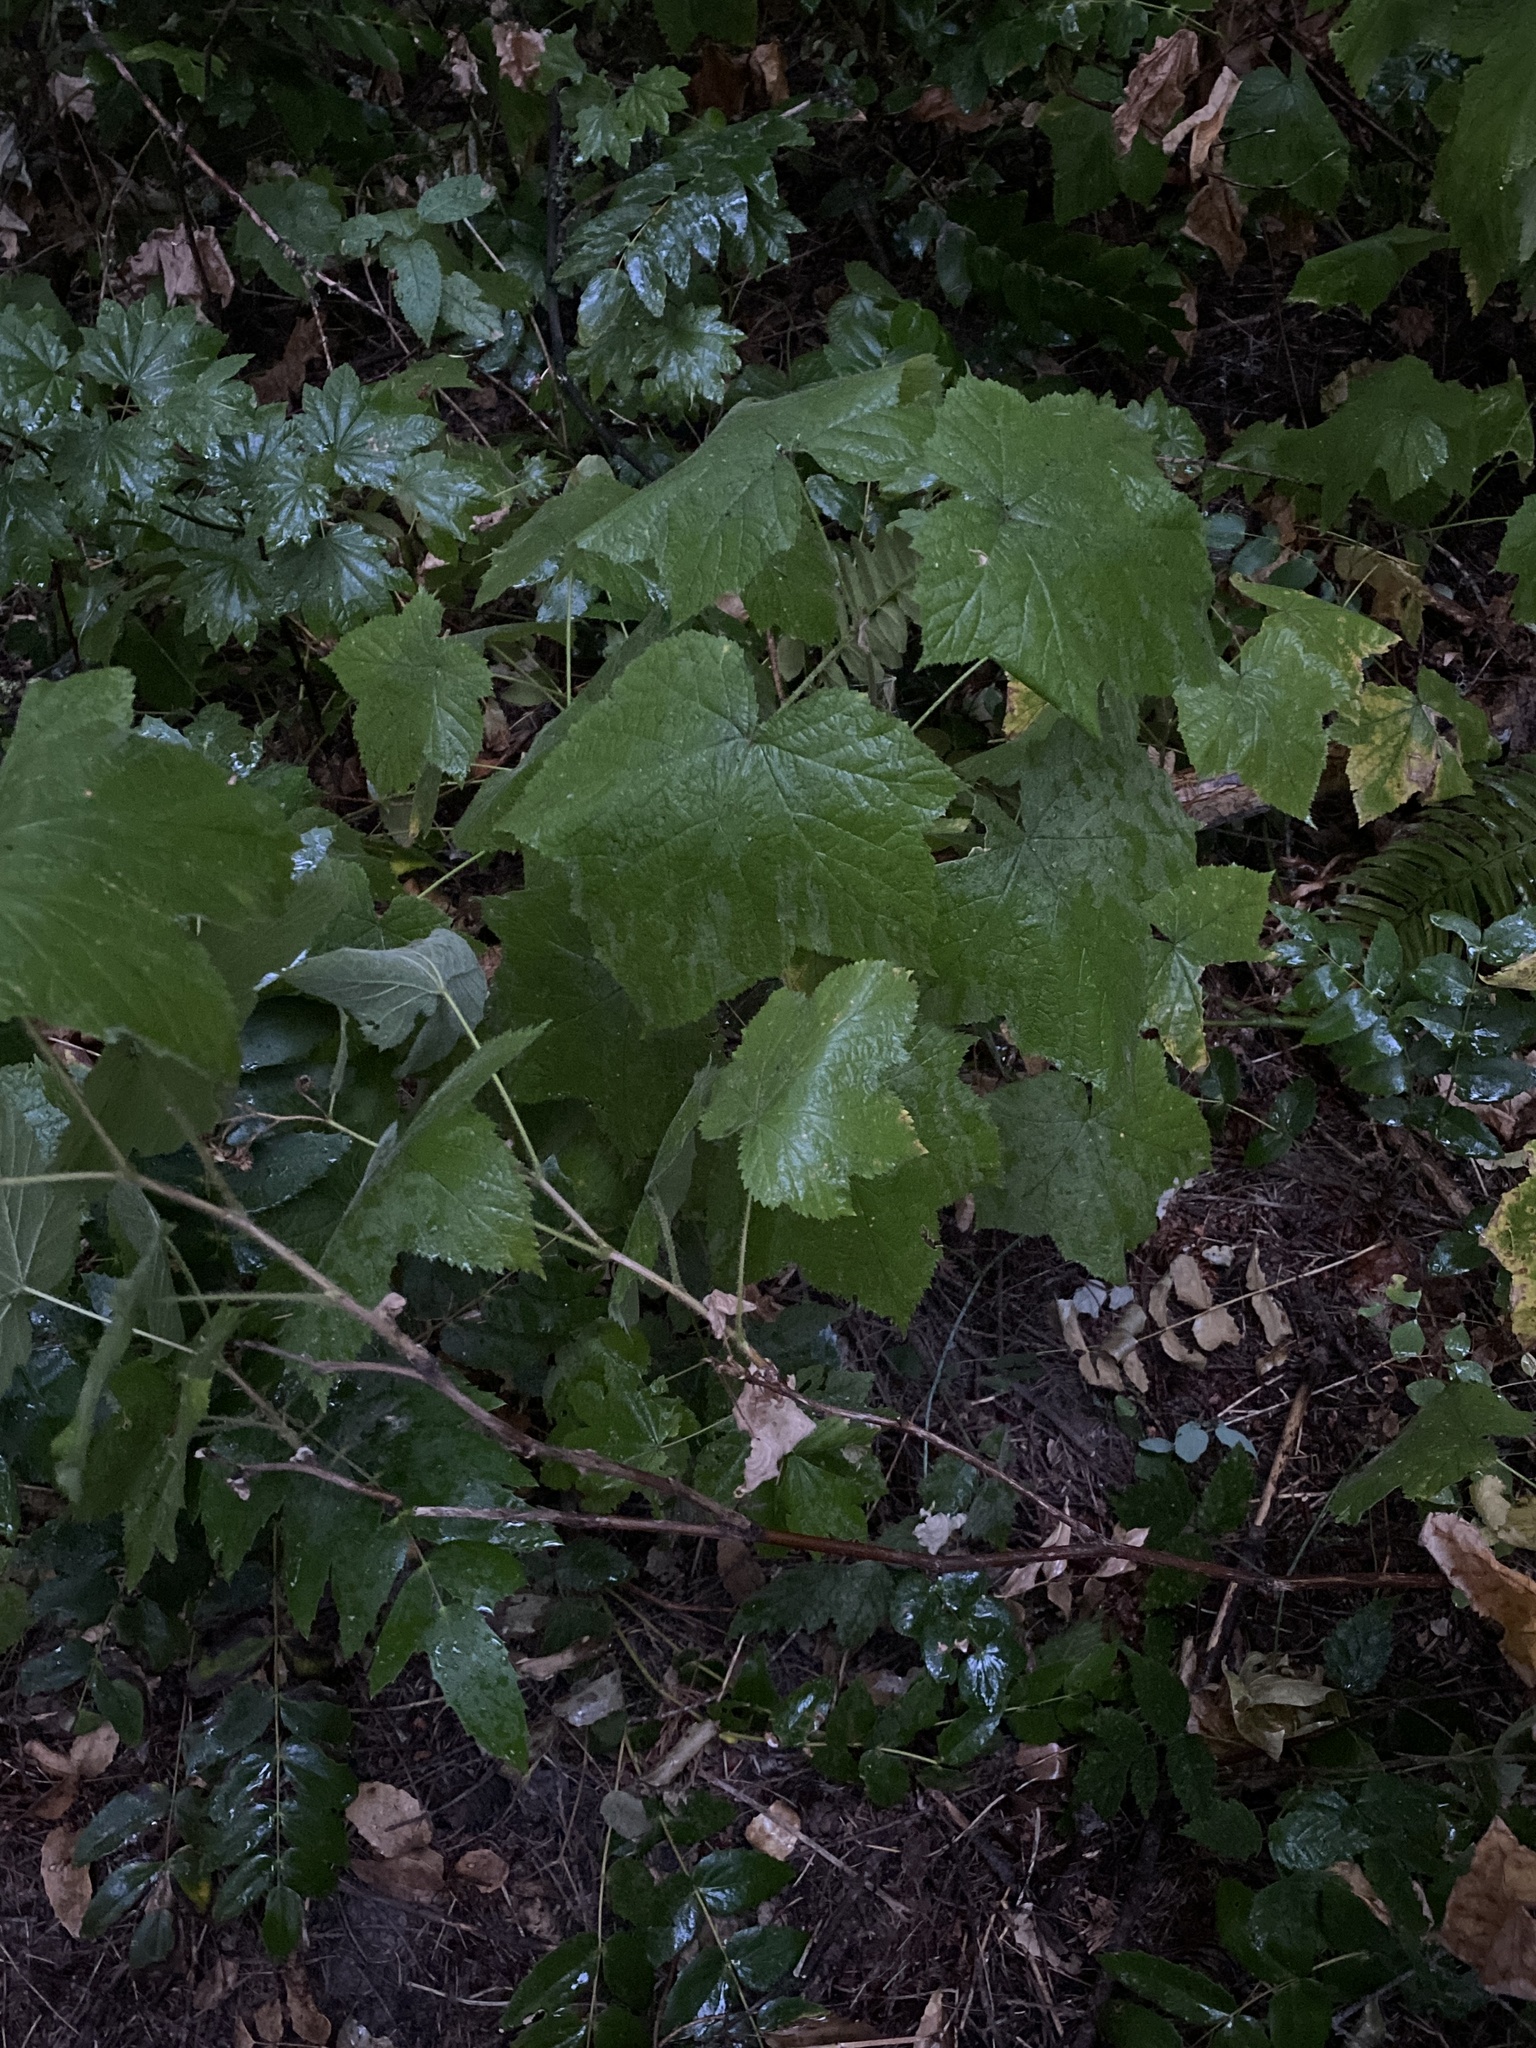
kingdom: Plantae
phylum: Tracheophyta
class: Magnoliopsida
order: Rosales
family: Rosaceae
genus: Rubus
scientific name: Rubus parviflorus
